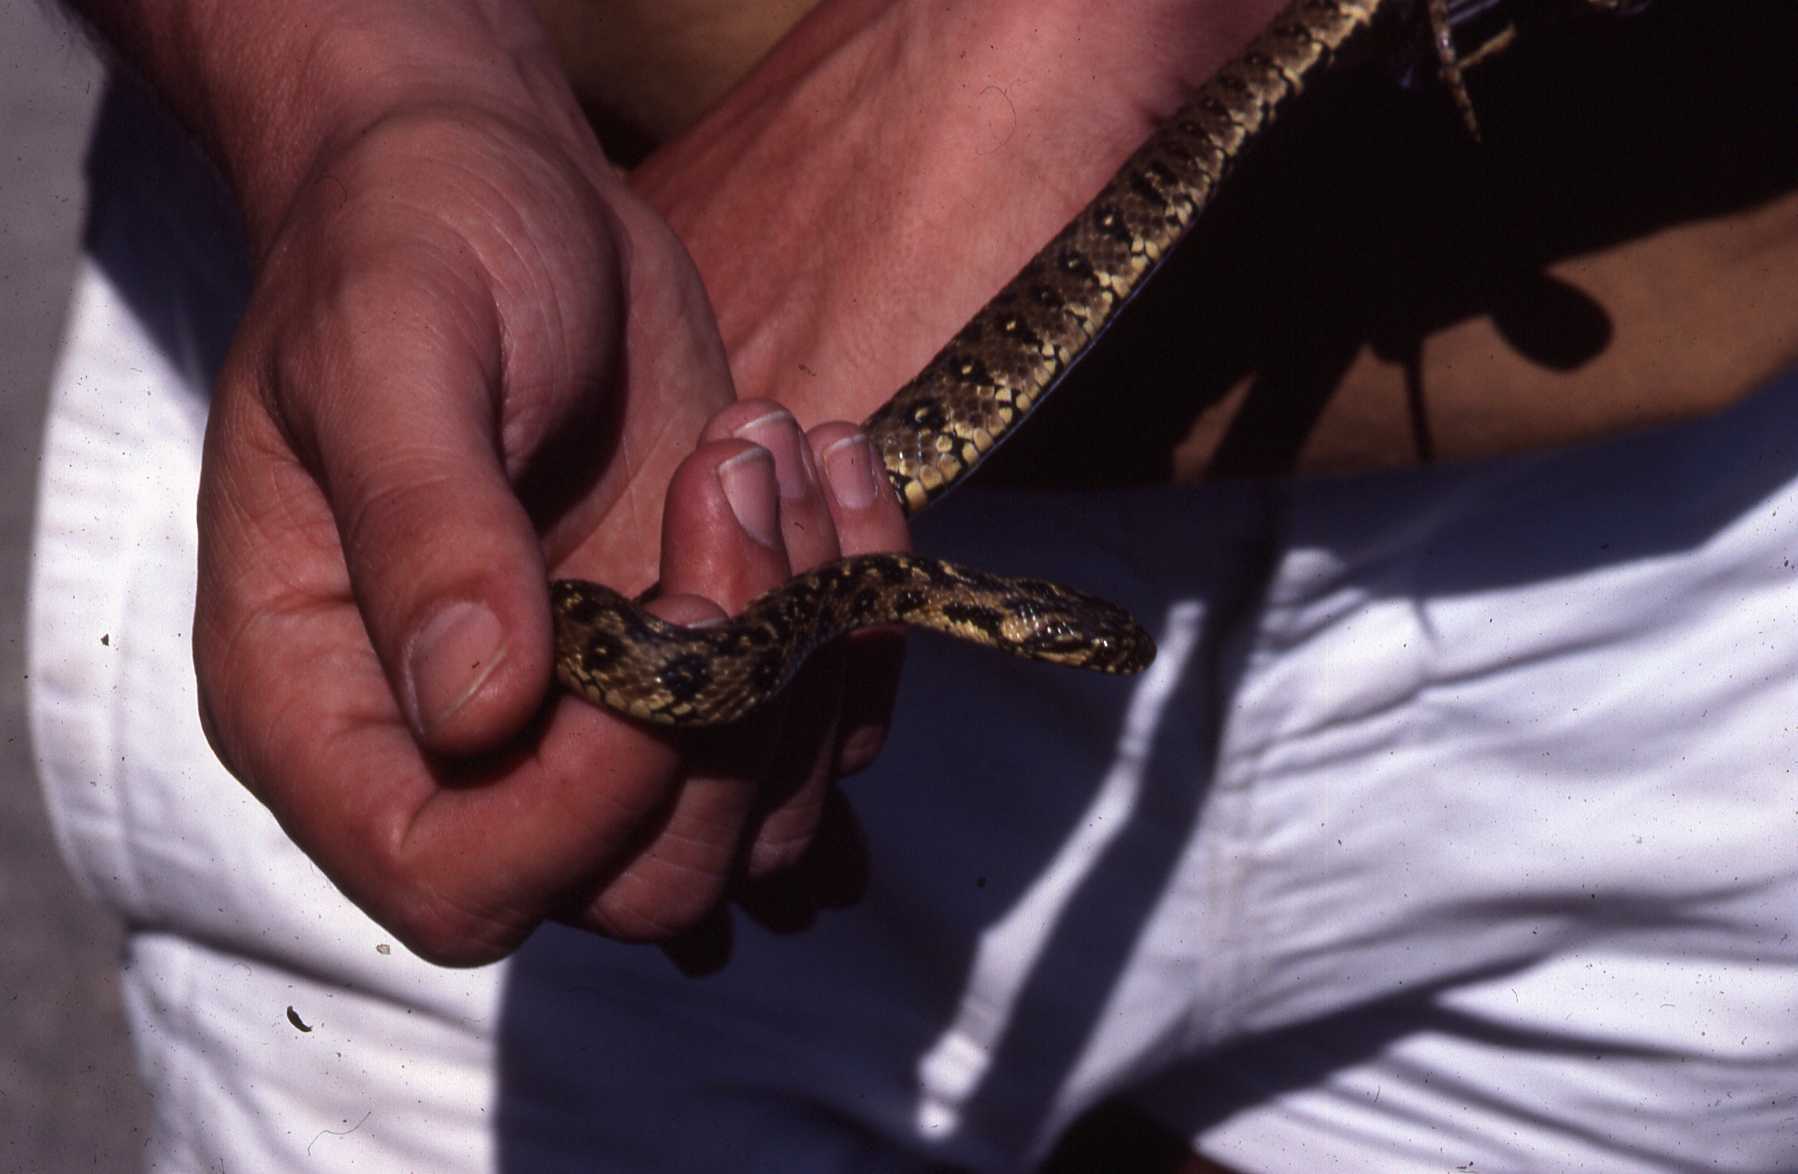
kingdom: Animalia
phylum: Chordata
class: Squamata
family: Colubridae
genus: Natrix
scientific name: Natrix maura
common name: Viperine water snake
